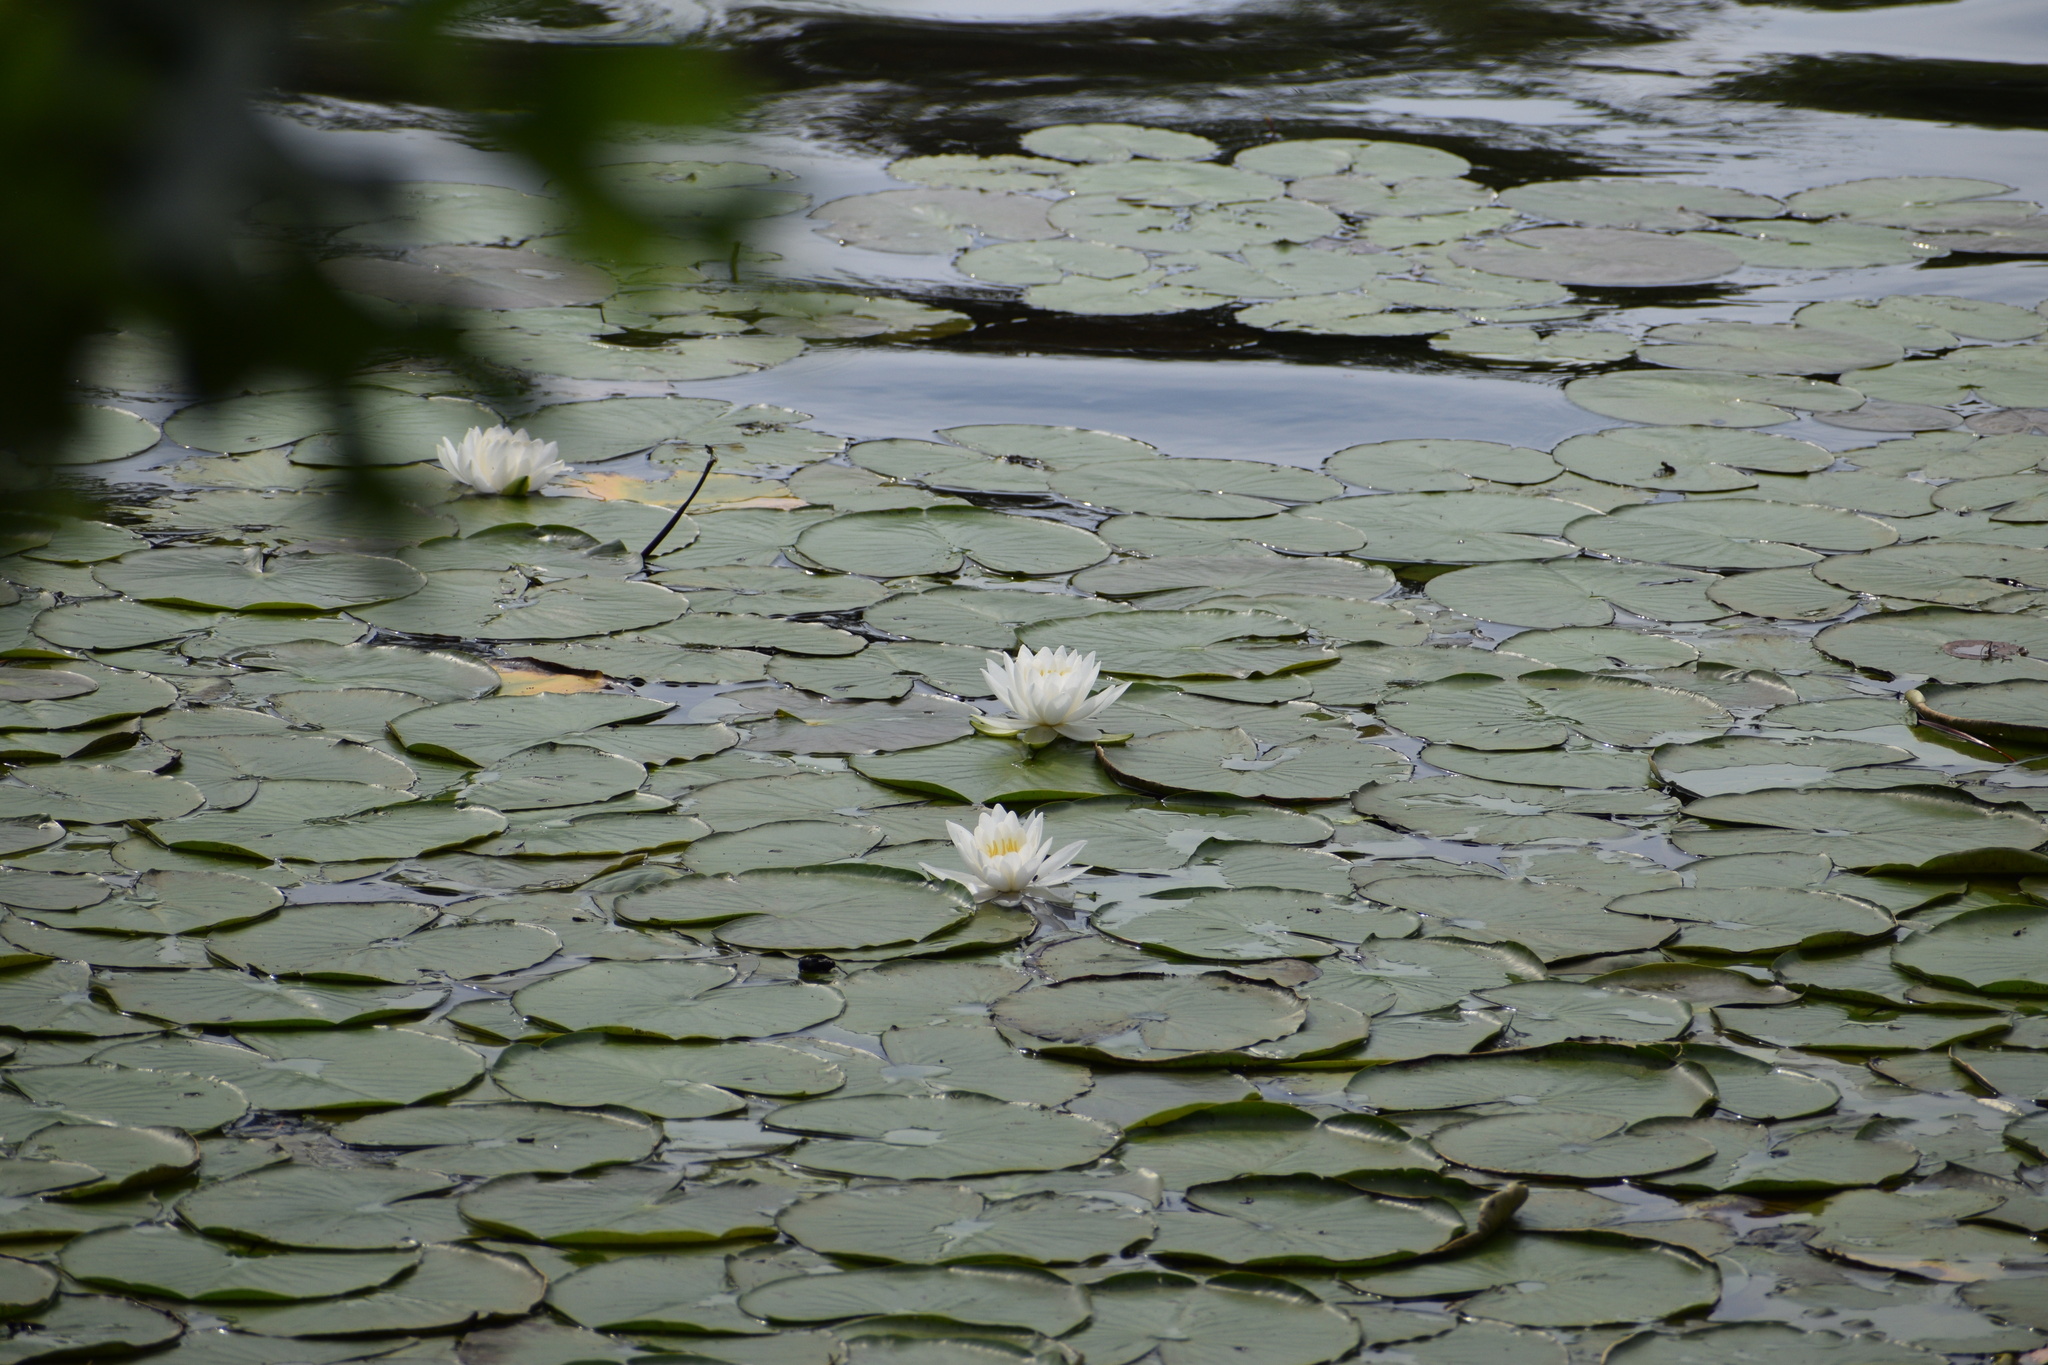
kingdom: Plantae
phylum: Tracheophyta
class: Magnoliopsida
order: Nymphaeales
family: Nymphaeaceae
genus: Nymphaea
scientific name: Nymphaea odorata
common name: Fragrant water-lily
